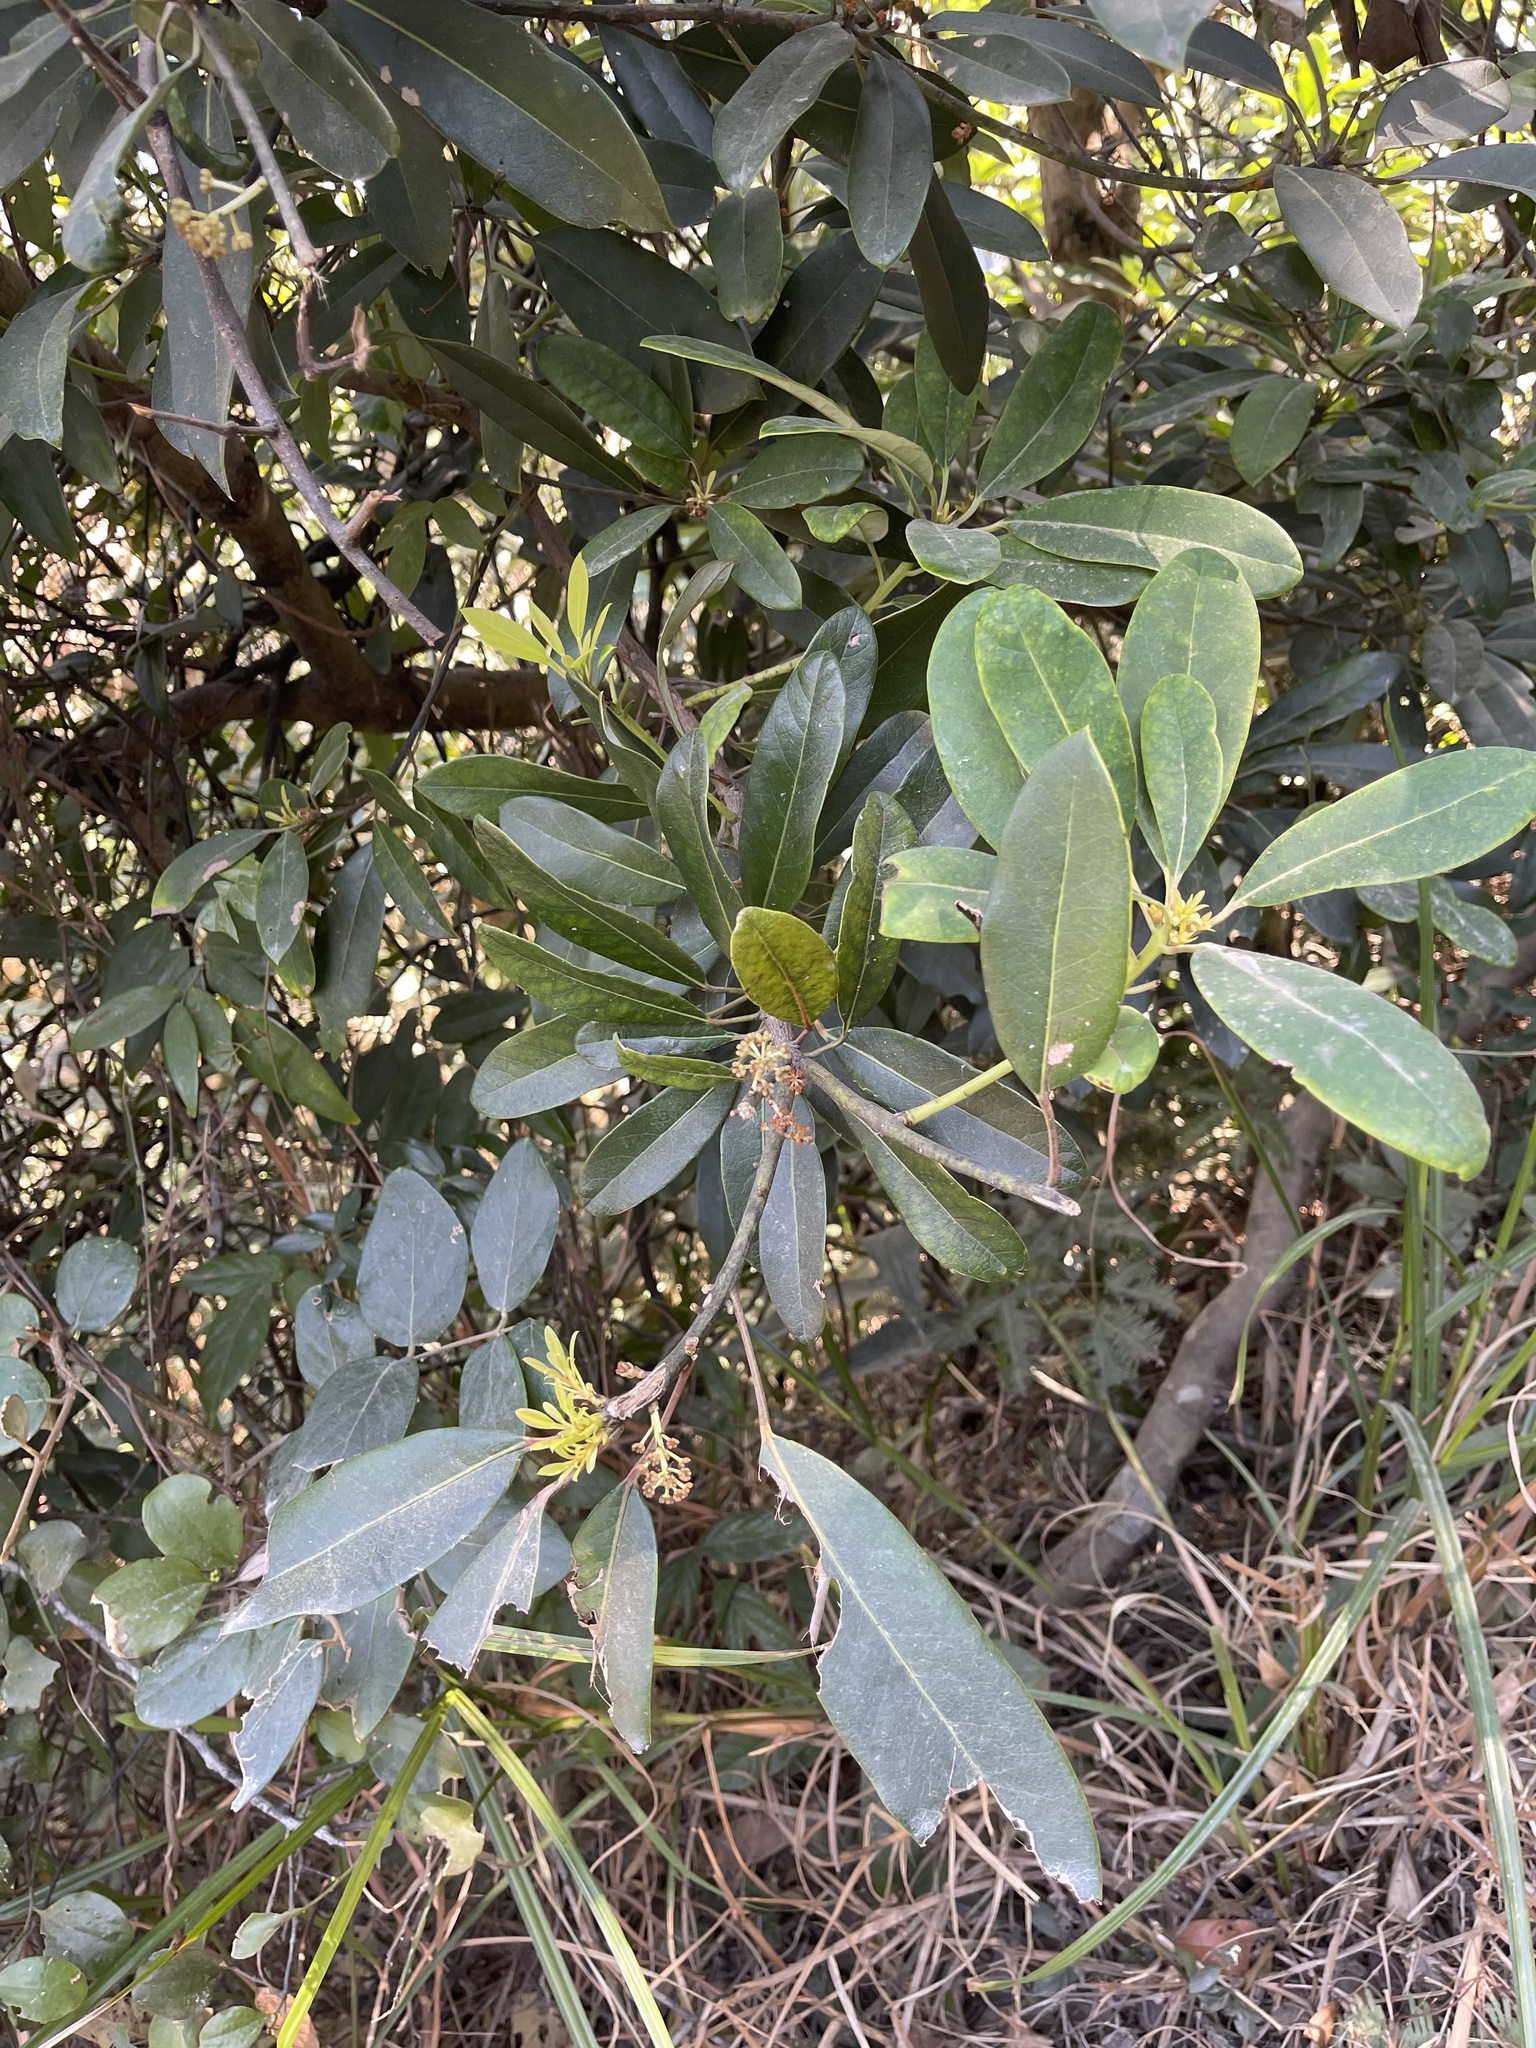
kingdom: Plantae
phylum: Tracheophyta
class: Magnoliopsida
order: Saxifragales
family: Daphniphyllaceae
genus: Daphniphyllum
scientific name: Daphniphyllum pentandrum
